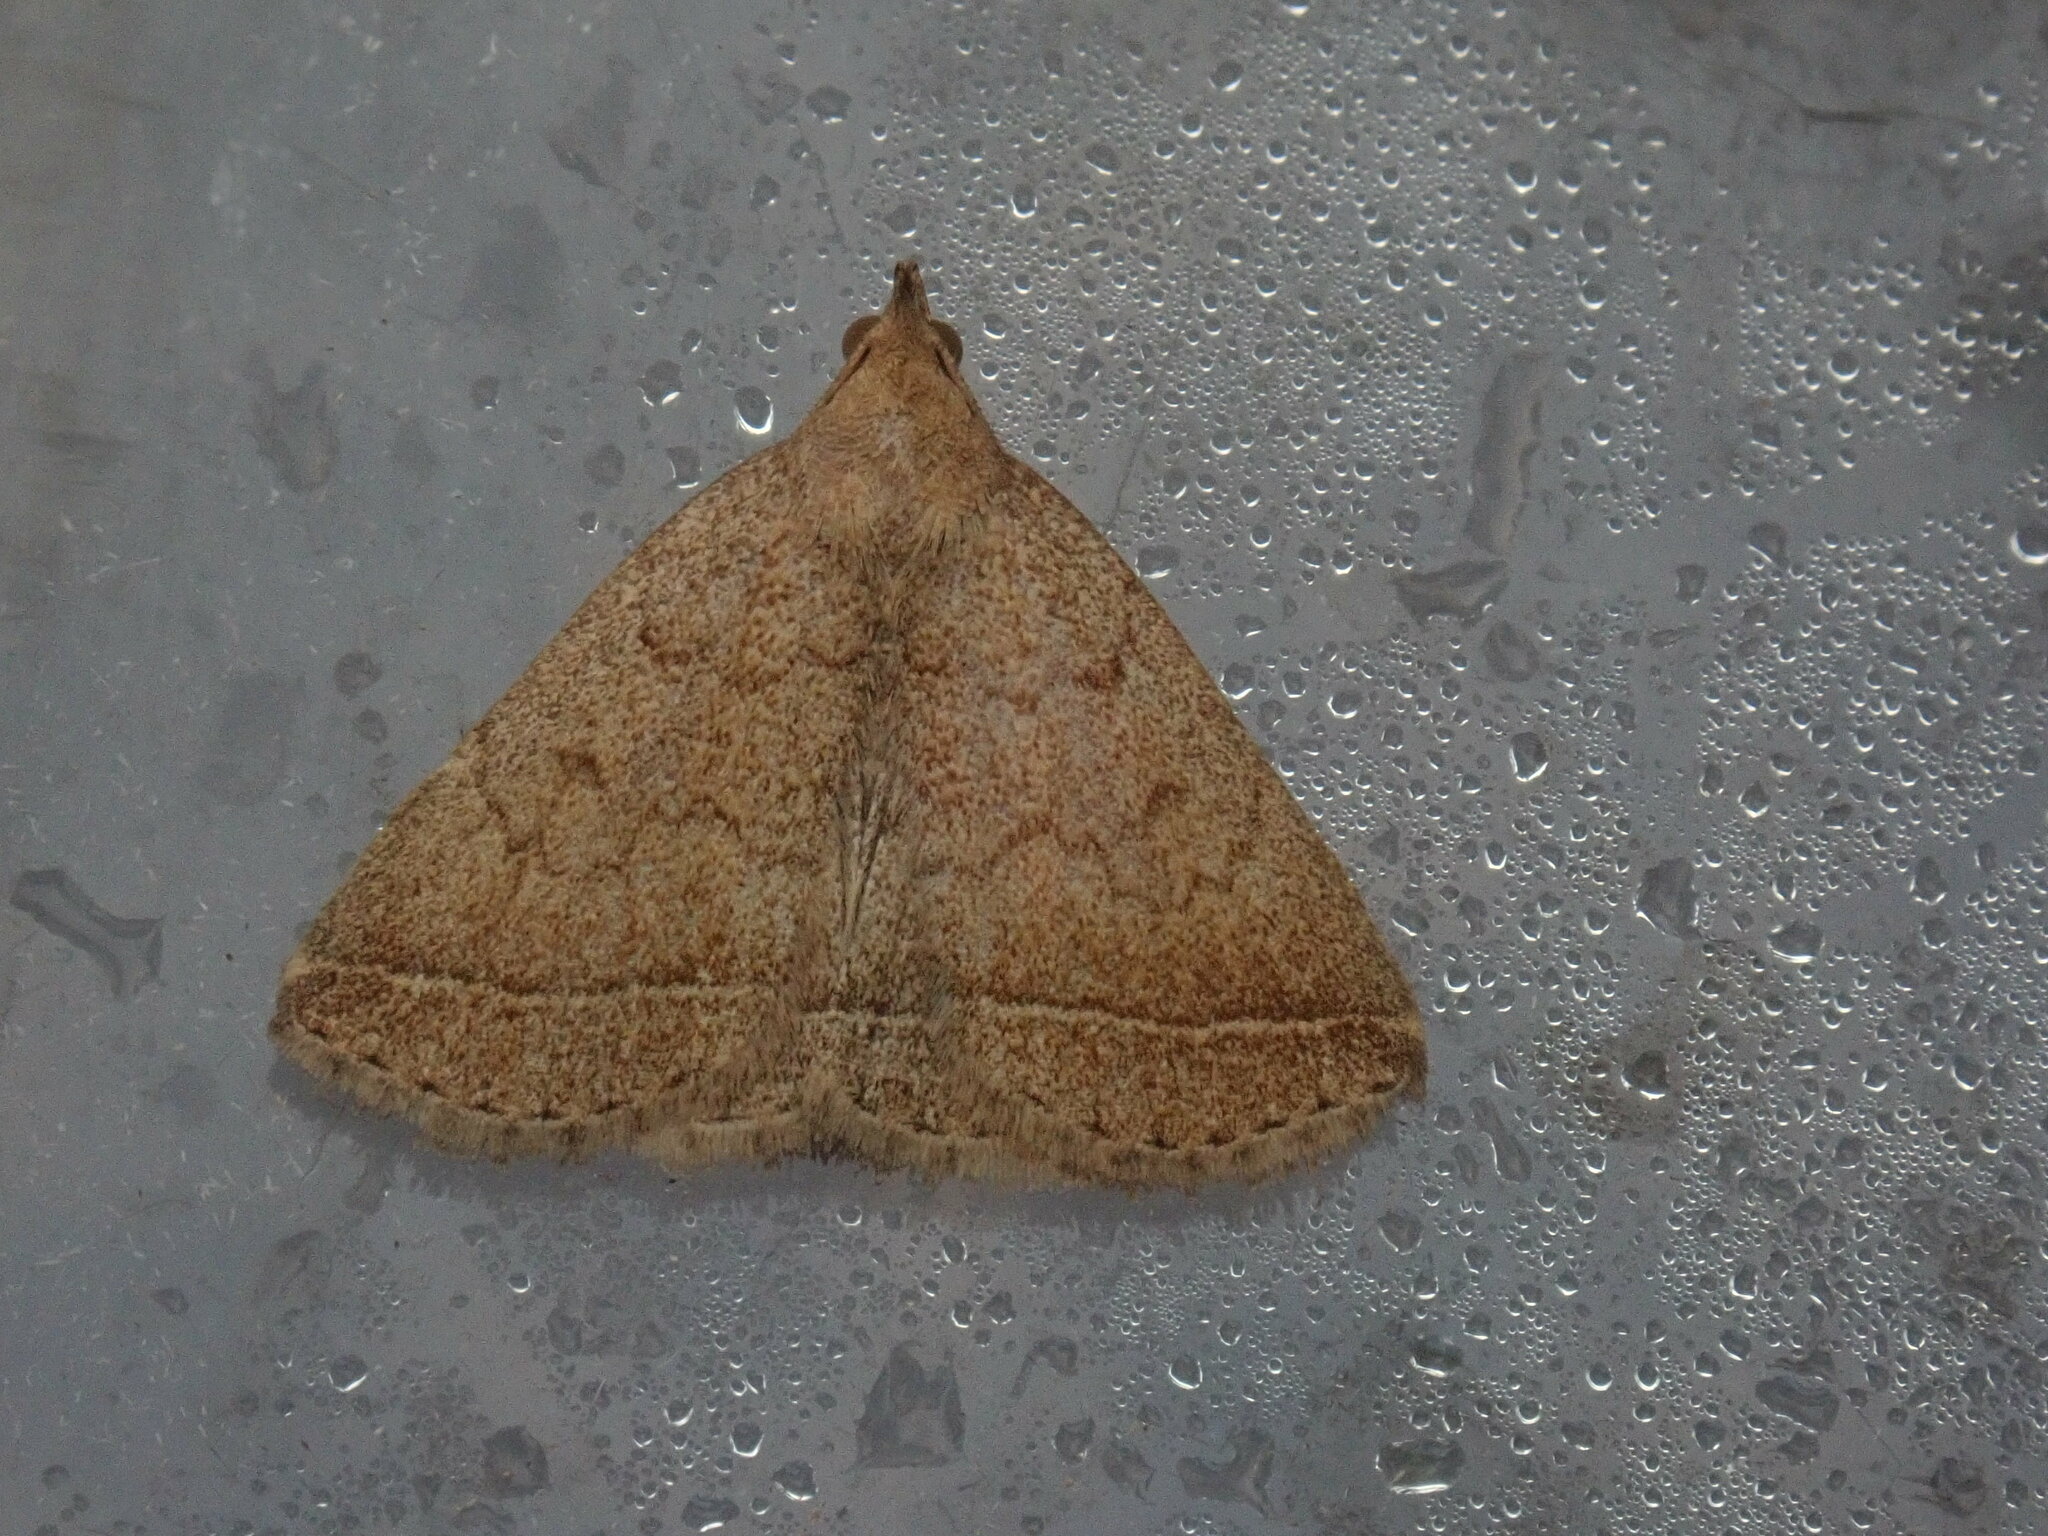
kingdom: Animalia
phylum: Arthropoda
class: Insecta
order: Lepidoptera
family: Erebidae
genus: Zanclognatha
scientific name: Zanclognatha jacchusalis
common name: Yellowish zanclognatha
